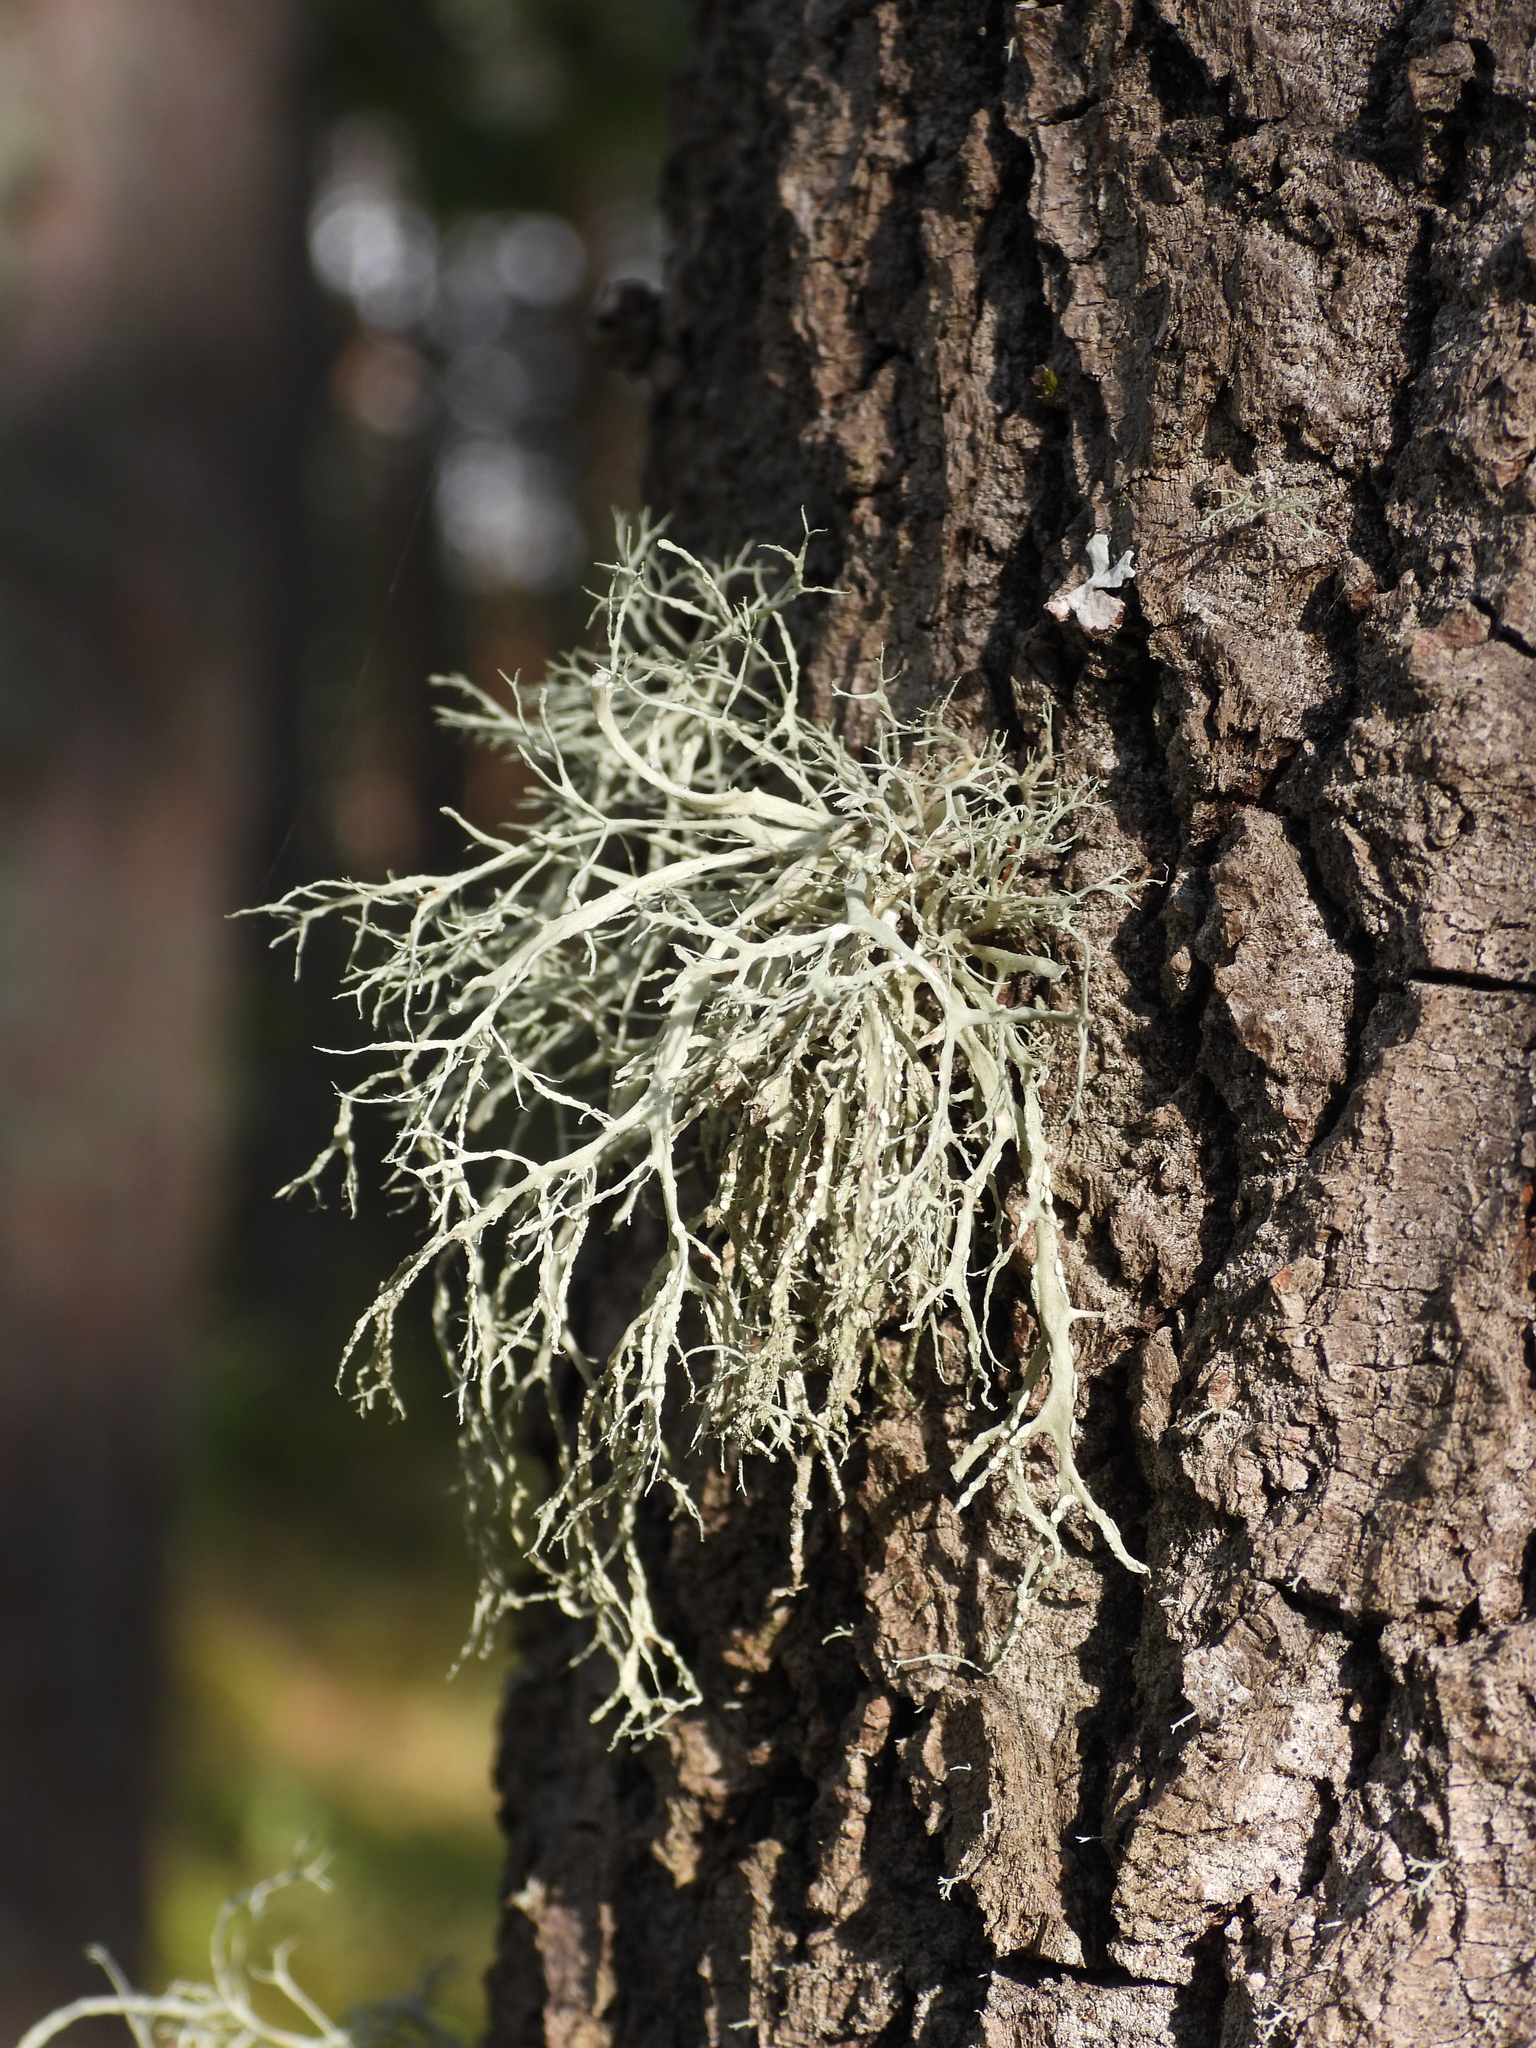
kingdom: Fungi
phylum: Ascomycota
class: Lecanoromycetes
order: Lecanorales
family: Ramalinaceae
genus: Ramalina
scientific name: Ramalina farinacea
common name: Farinose cartilage lichen
